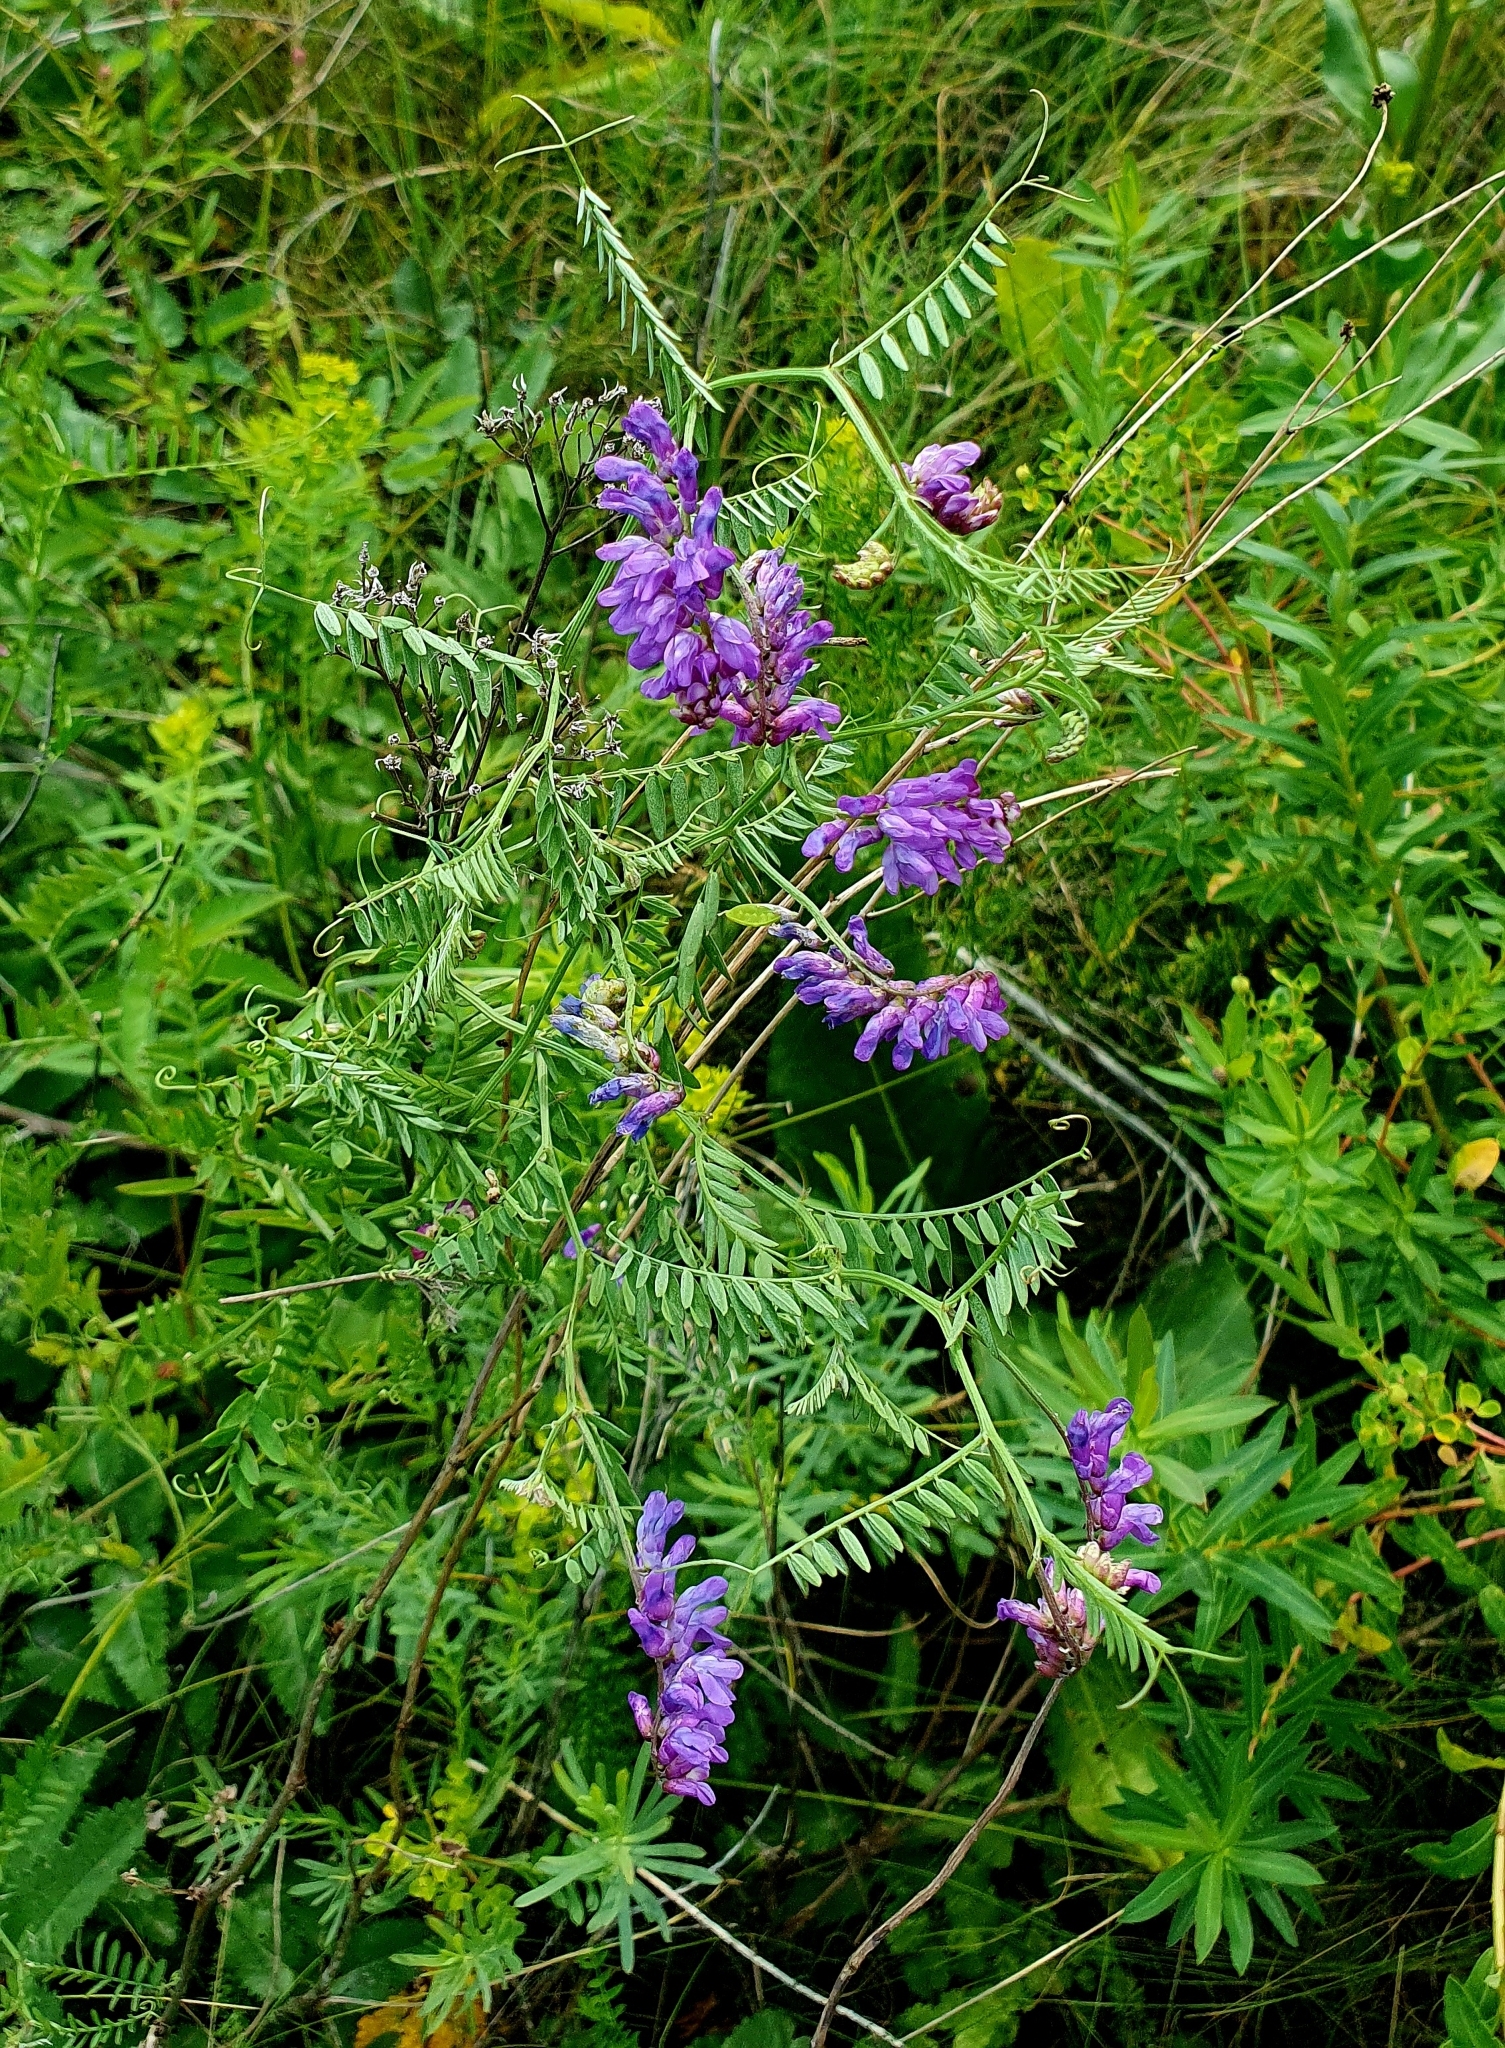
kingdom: Plantae
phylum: Tracheophyta
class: Magnoliopsida
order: Fabales
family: Fabaceae
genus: Vicia
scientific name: Vicia cracca
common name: Bird vetch
